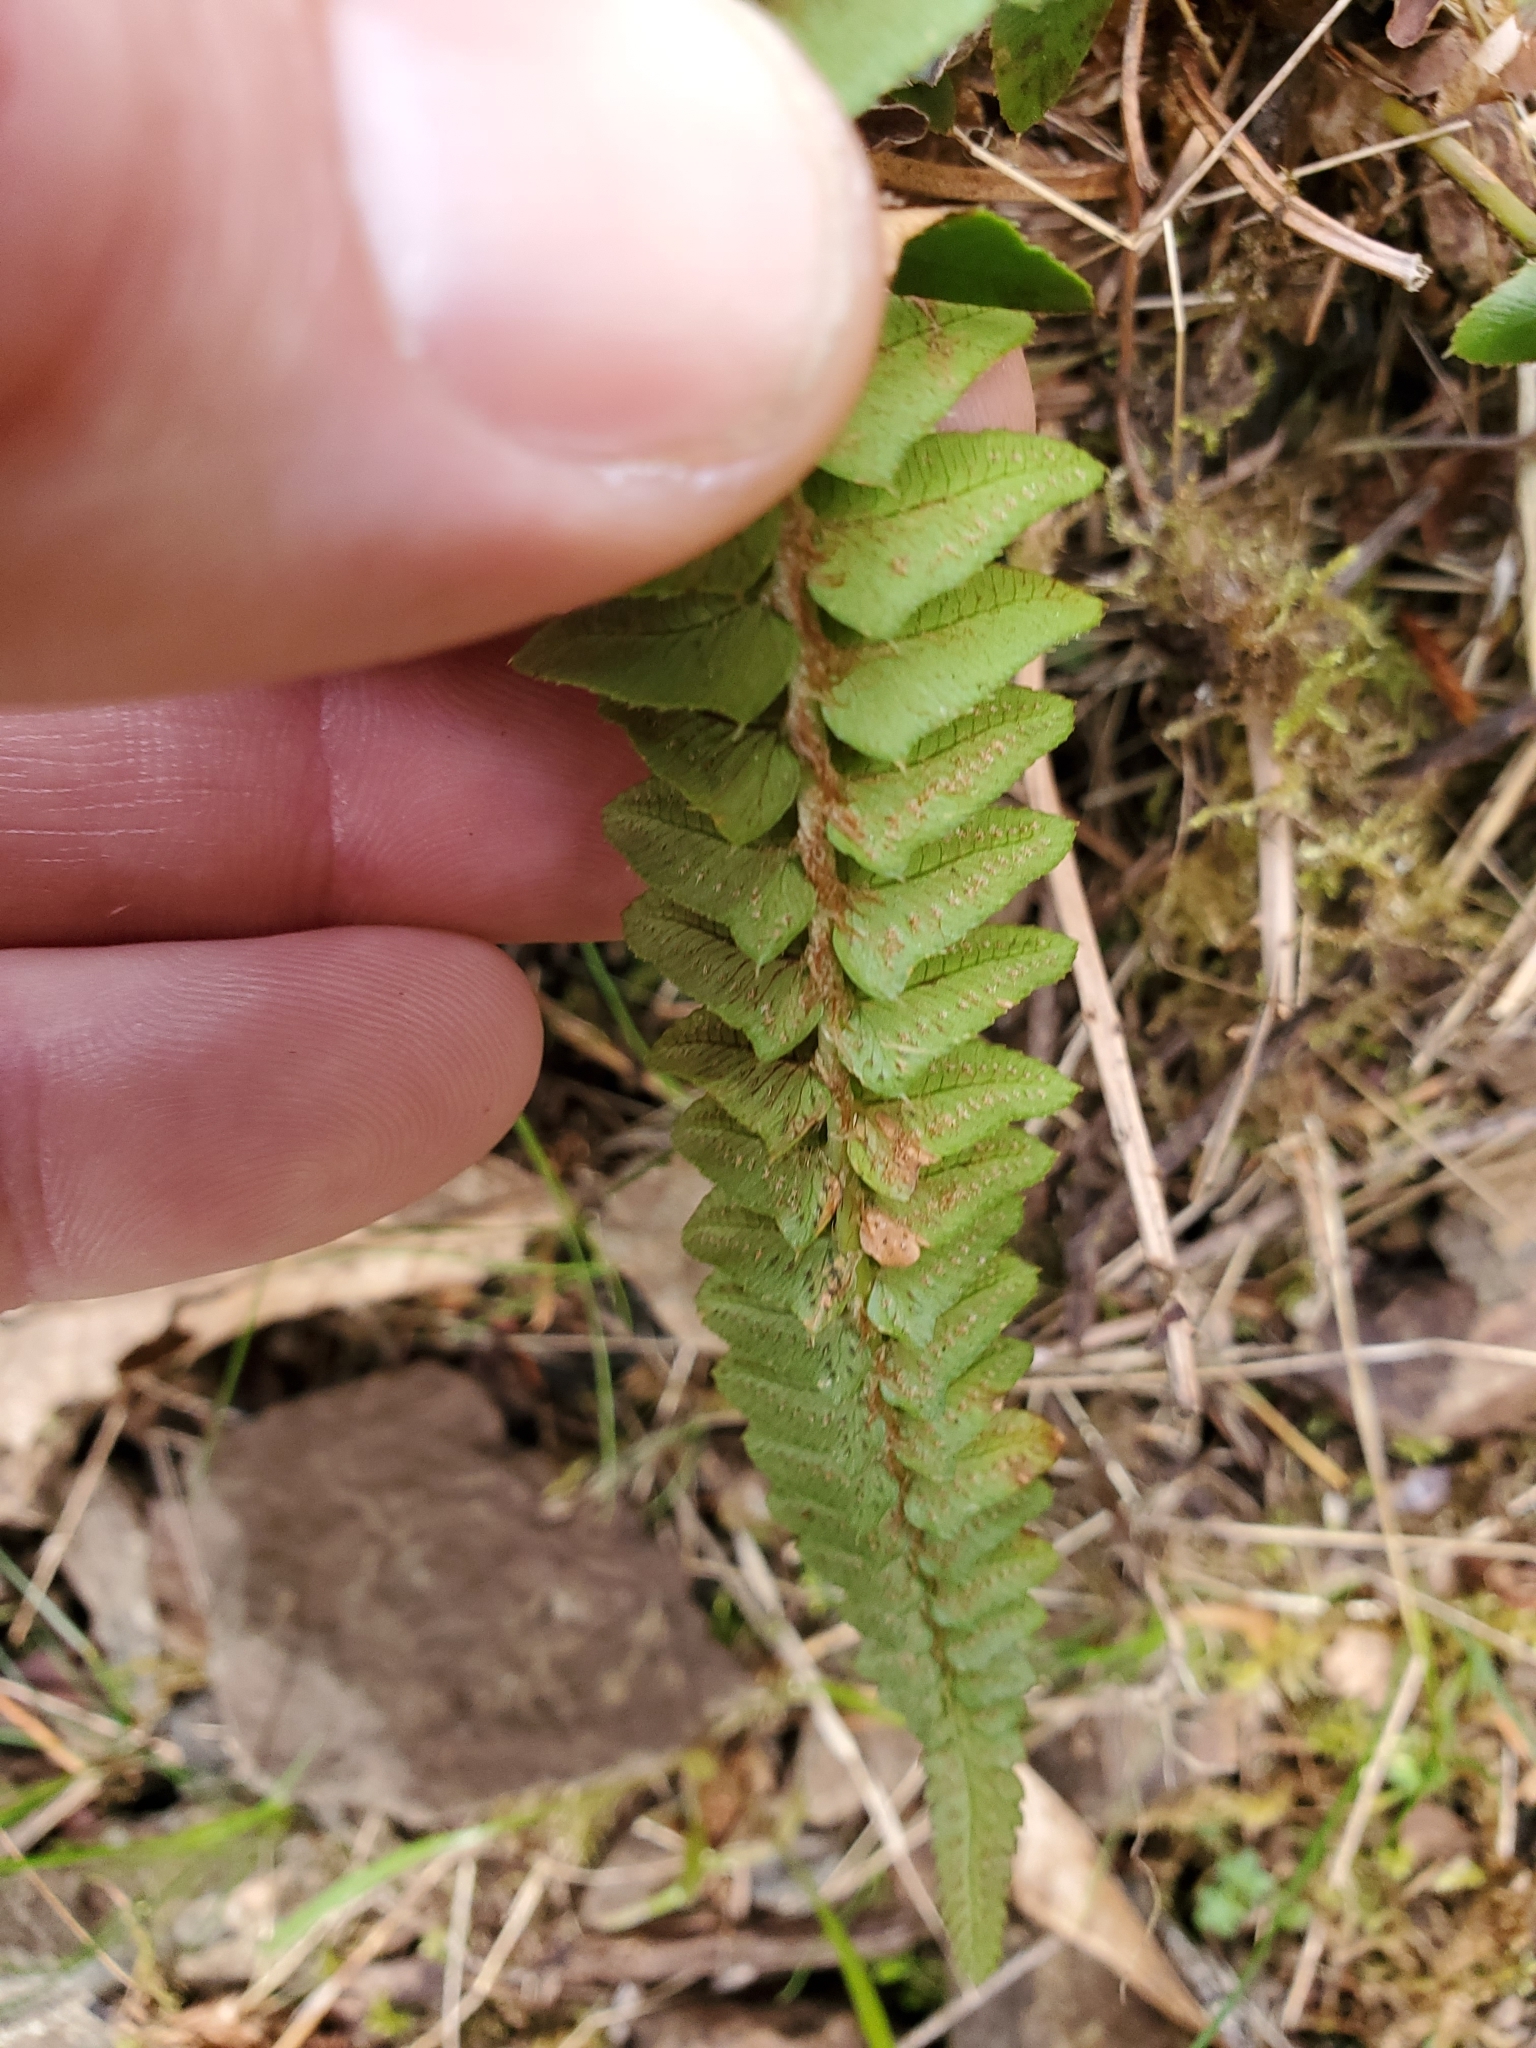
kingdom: Plantae
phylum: Tracheophyta
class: Polypodiopsida
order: Polypodiales
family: Dryopteridaceae
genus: Polystichum
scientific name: Polystichum imbricans
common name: Dwarf western sword fern
